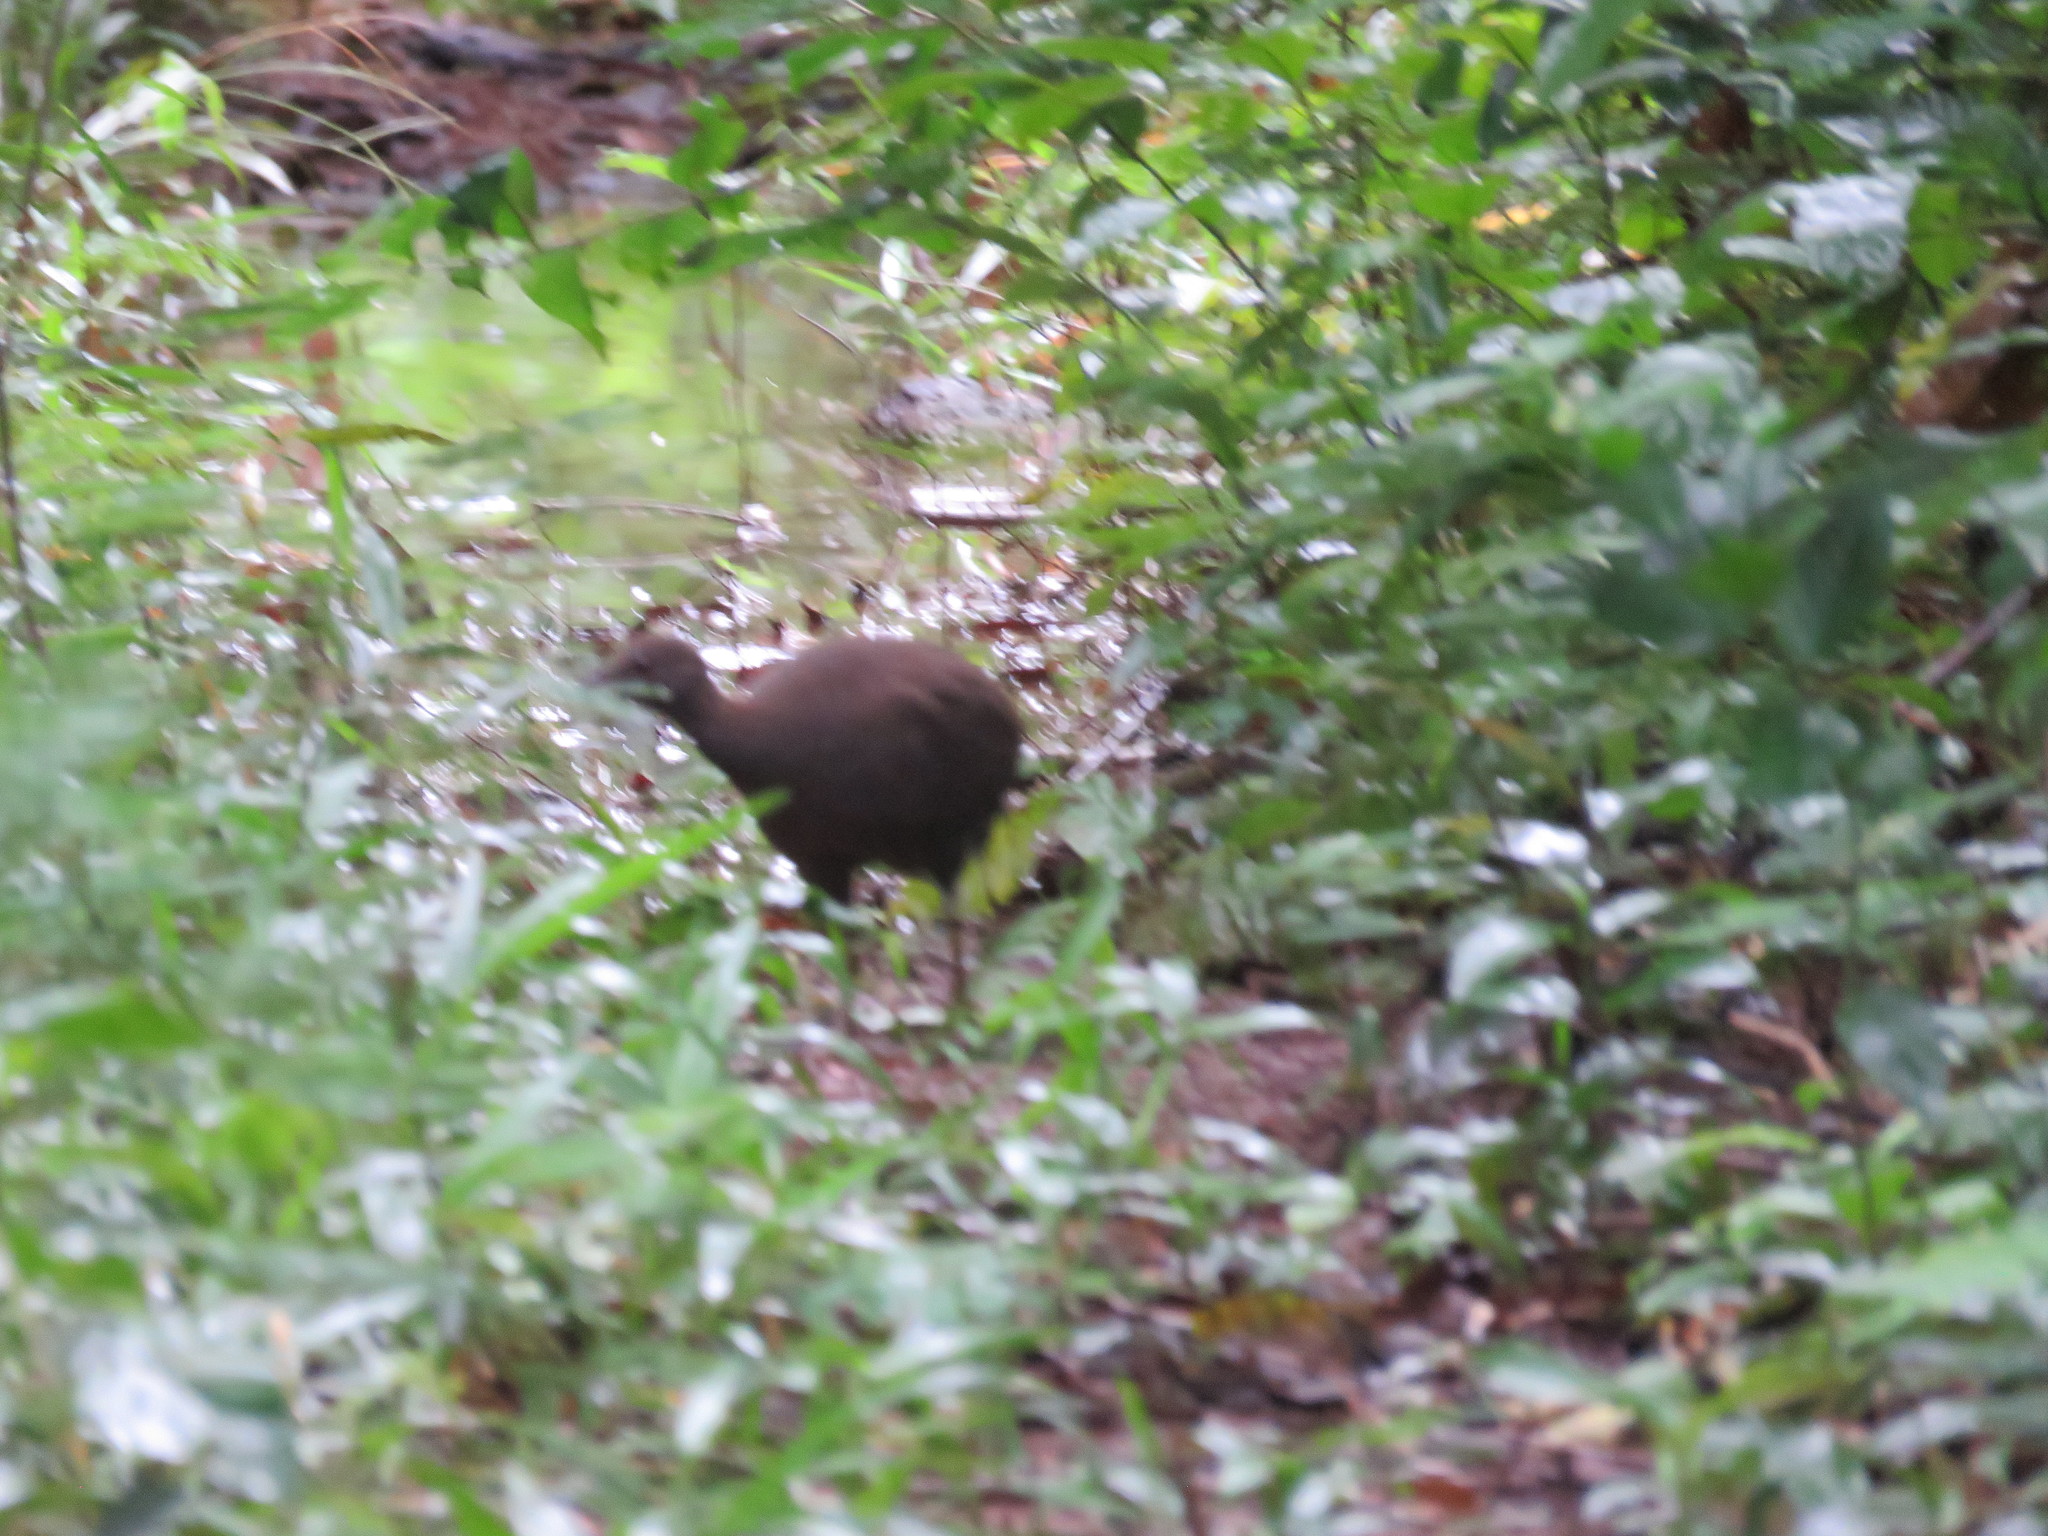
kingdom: Animalia
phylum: Chordata
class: Aves
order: Tinamiformes
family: Tinamidae
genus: Crypturellus
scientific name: Crypturellus cinereus
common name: Cinereous tinamou
